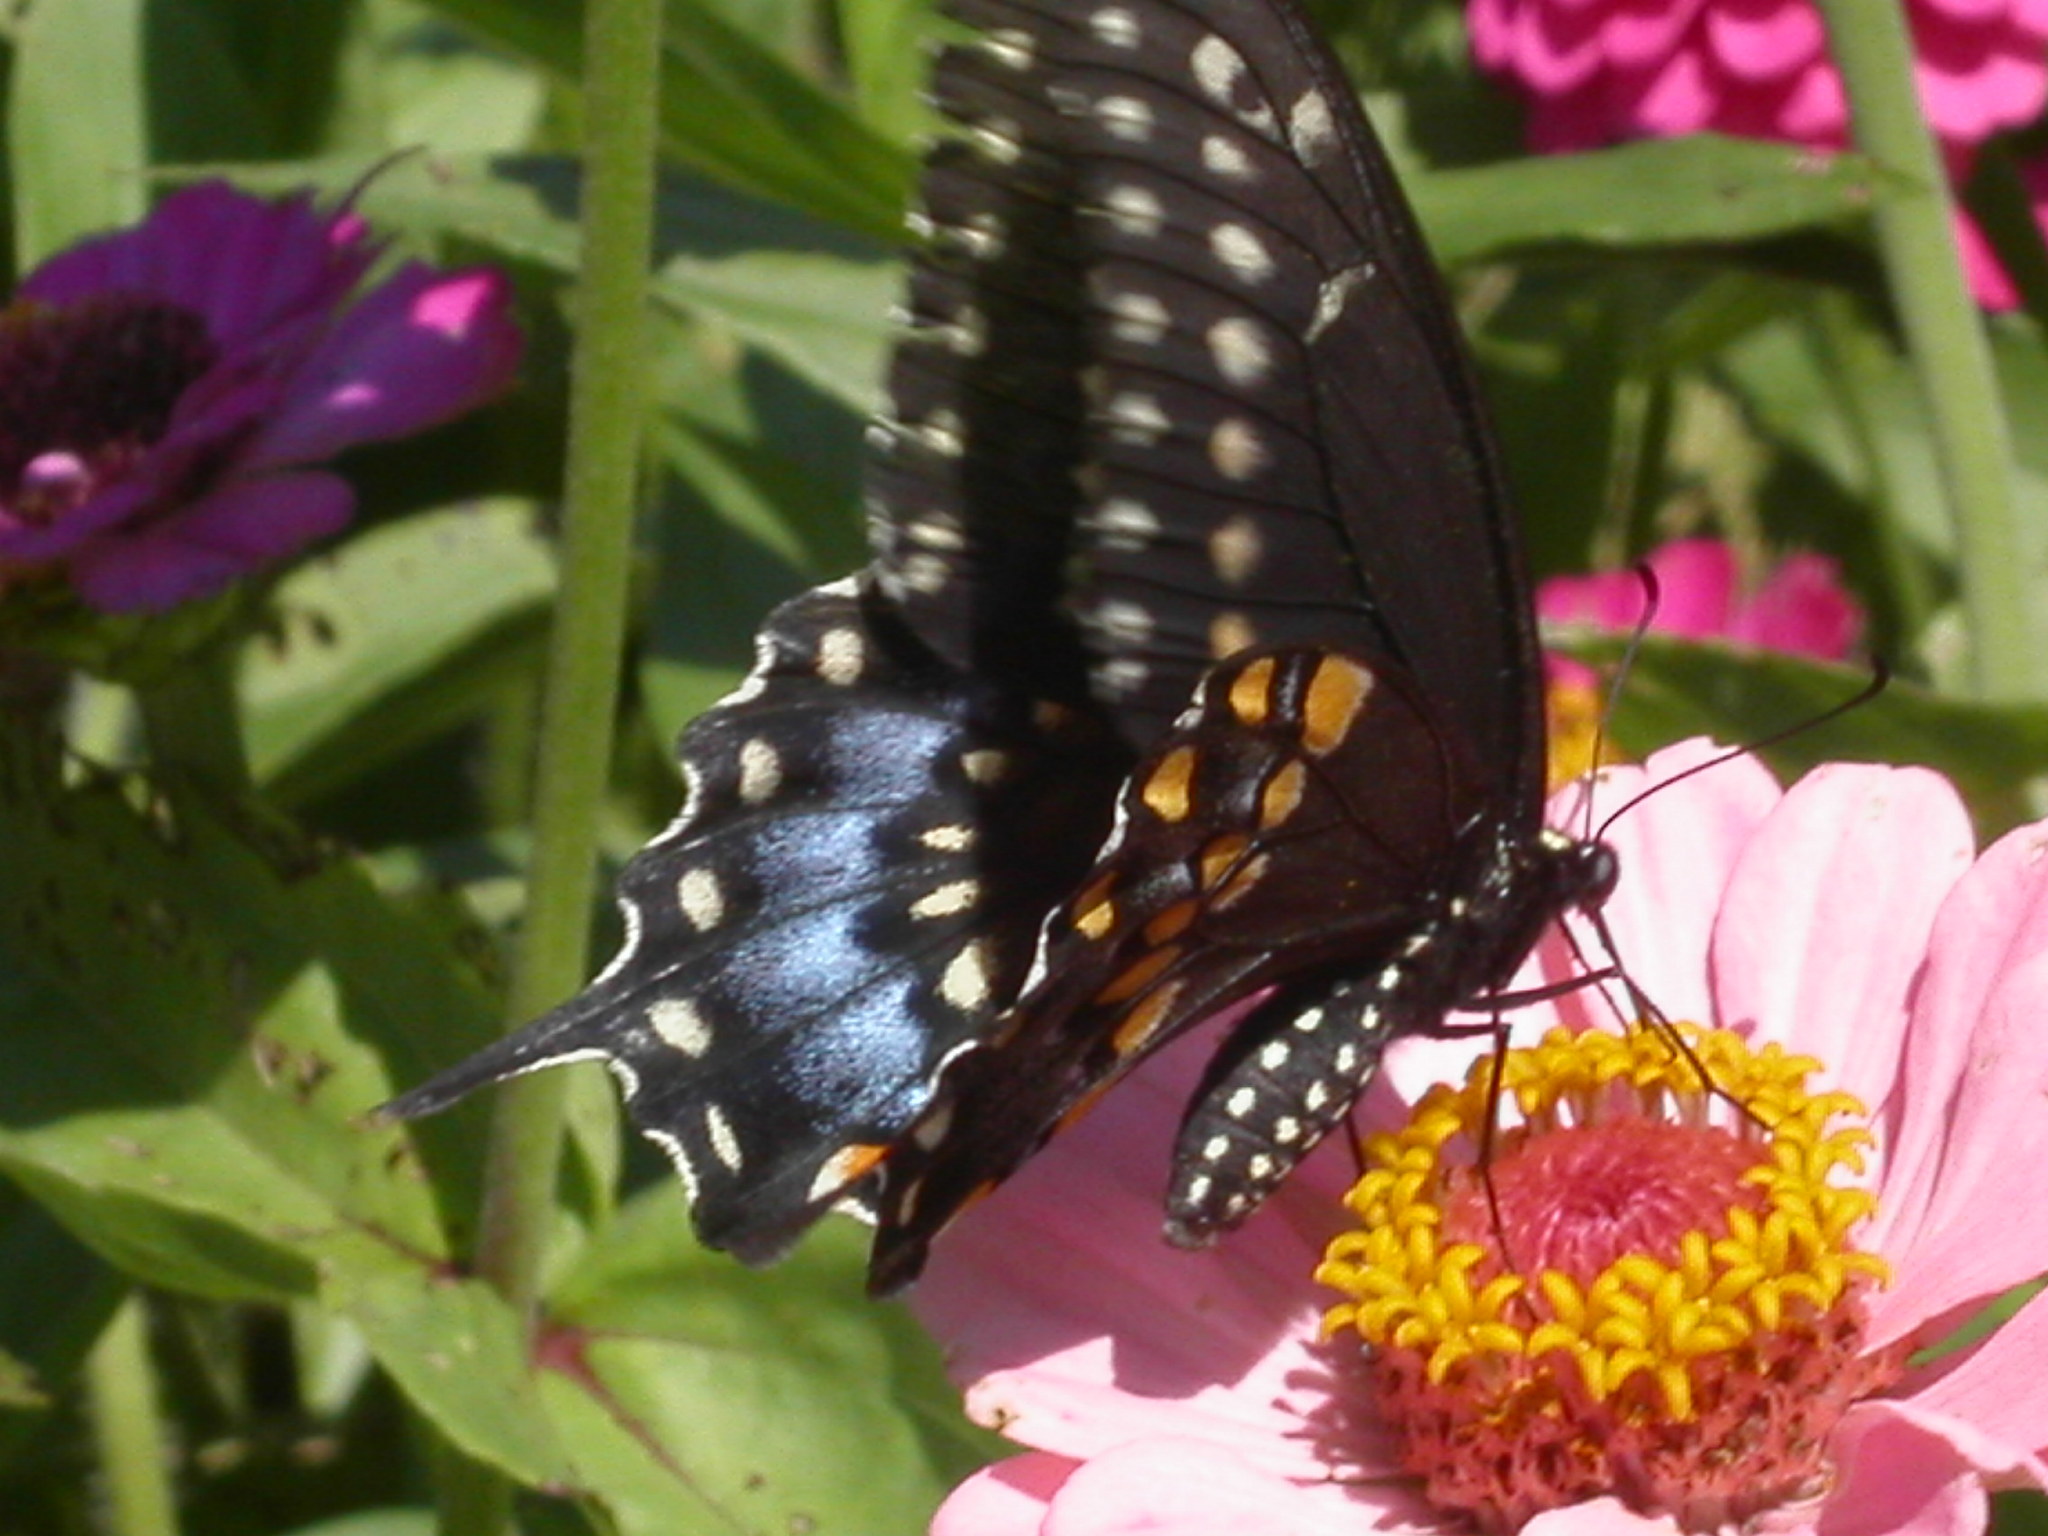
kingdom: Animalia
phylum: Arthropoda
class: Insecta
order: Lepidoptera
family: Papilionidae
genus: Papilio
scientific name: Papilio polyxenes
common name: Black swallowtail
